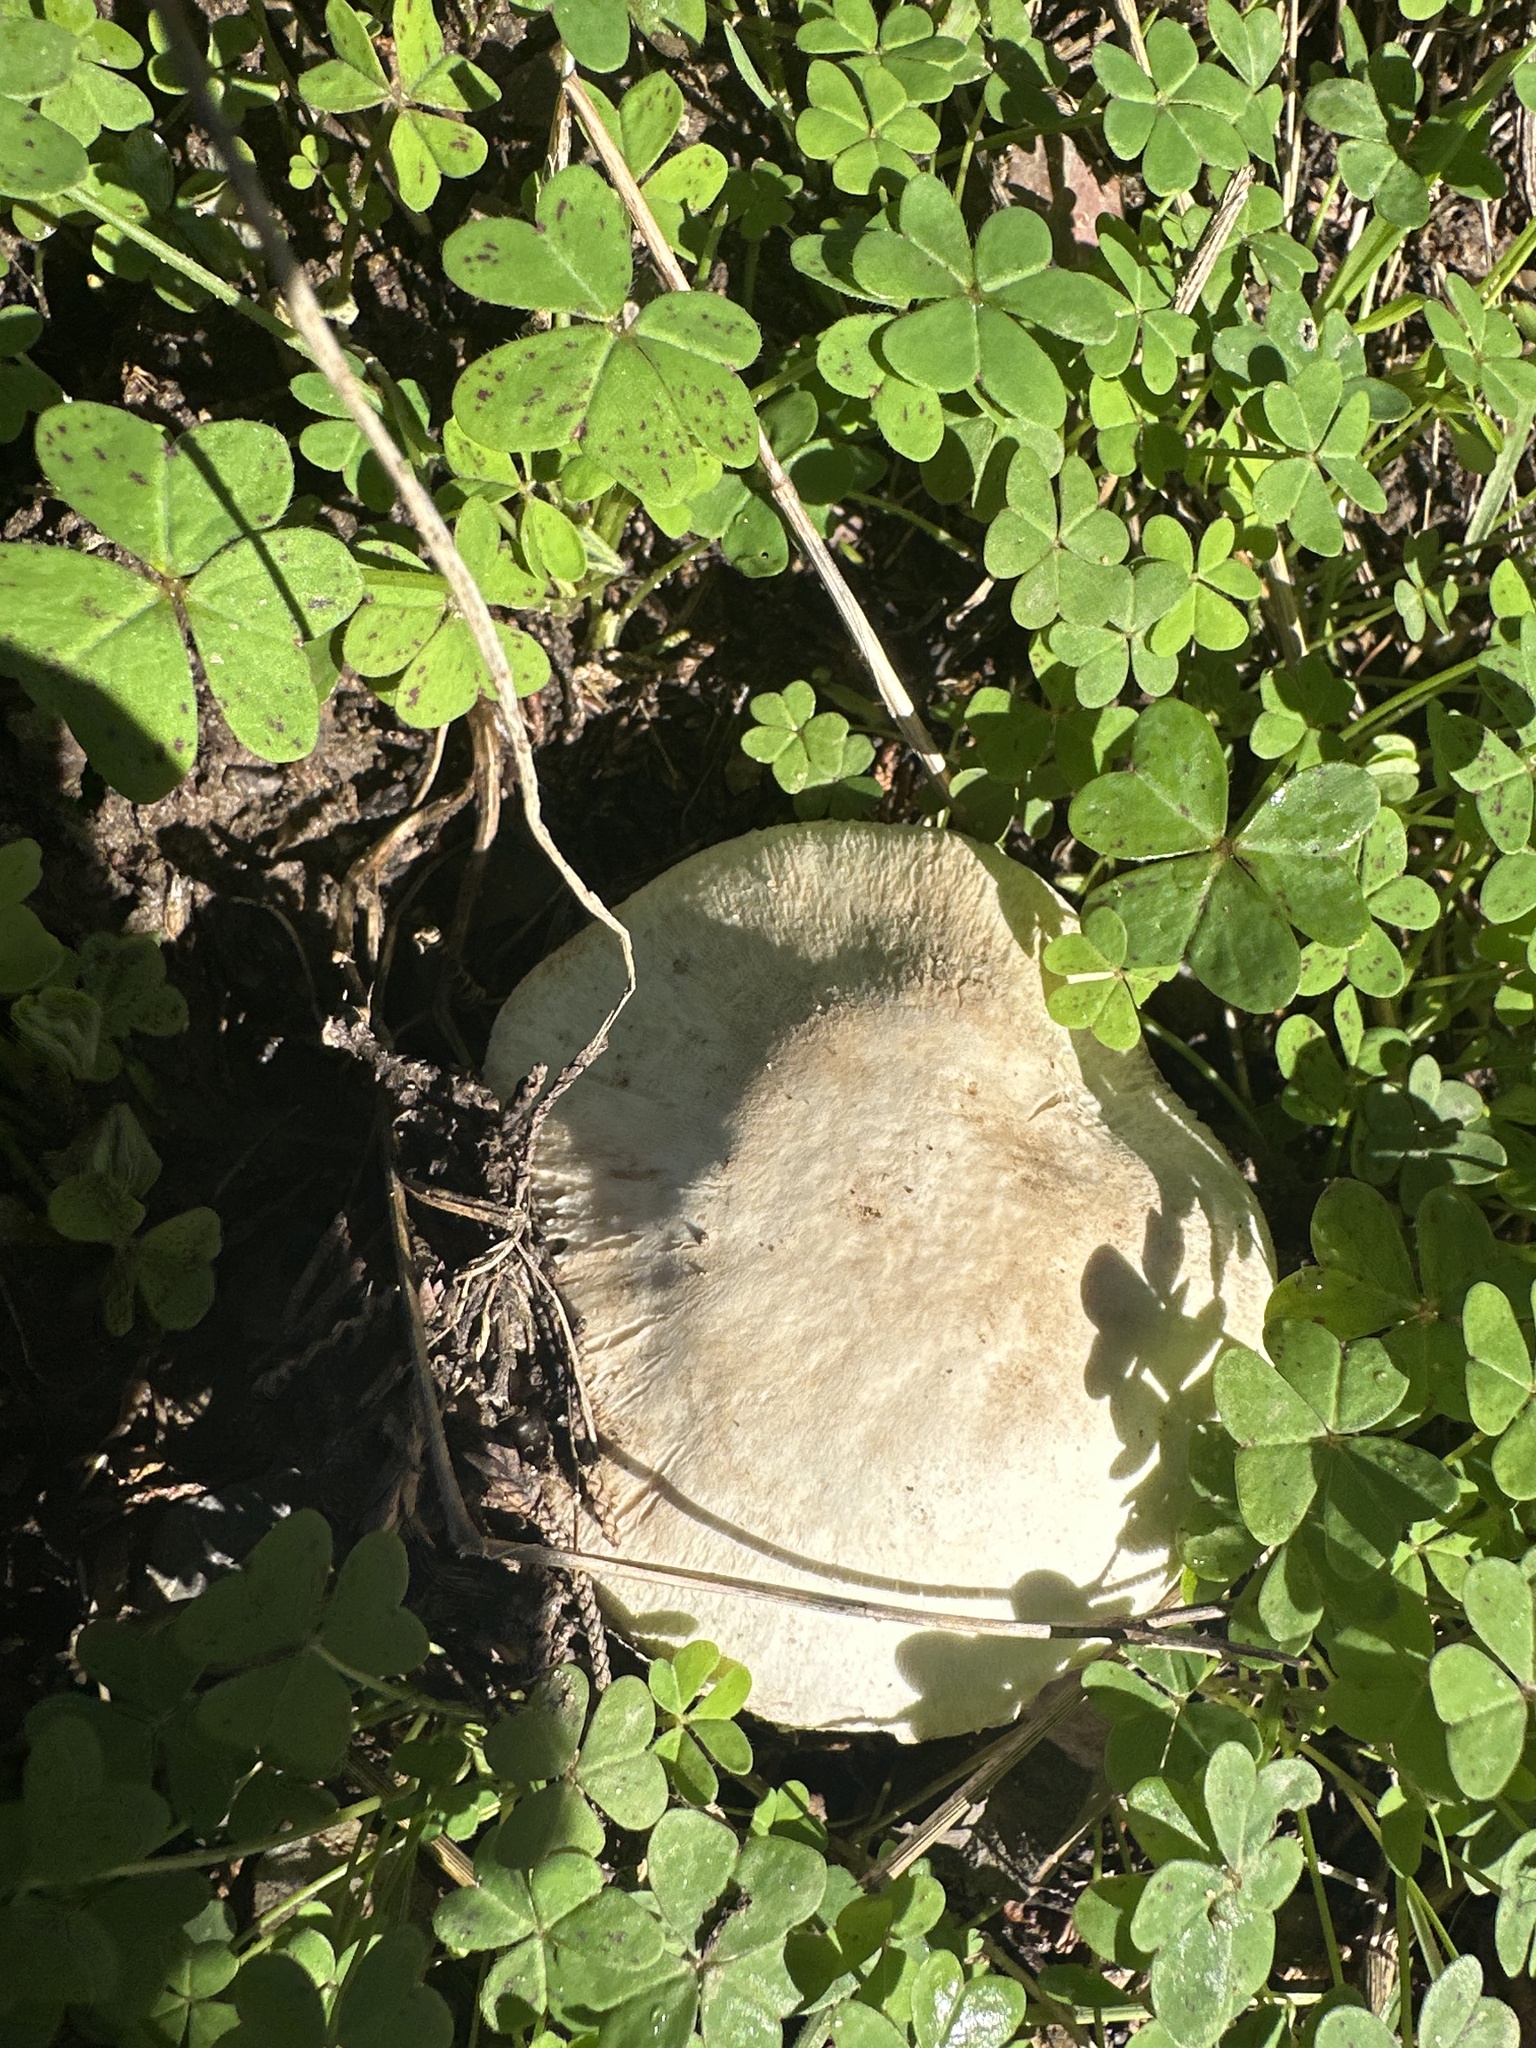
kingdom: Fungi
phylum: Basidiomycota
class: Agaricomycetes
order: Agaricales
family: Agaricaceae
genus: Agaricus
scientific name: Agaricus xanthodermus
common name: Yellow stainer
